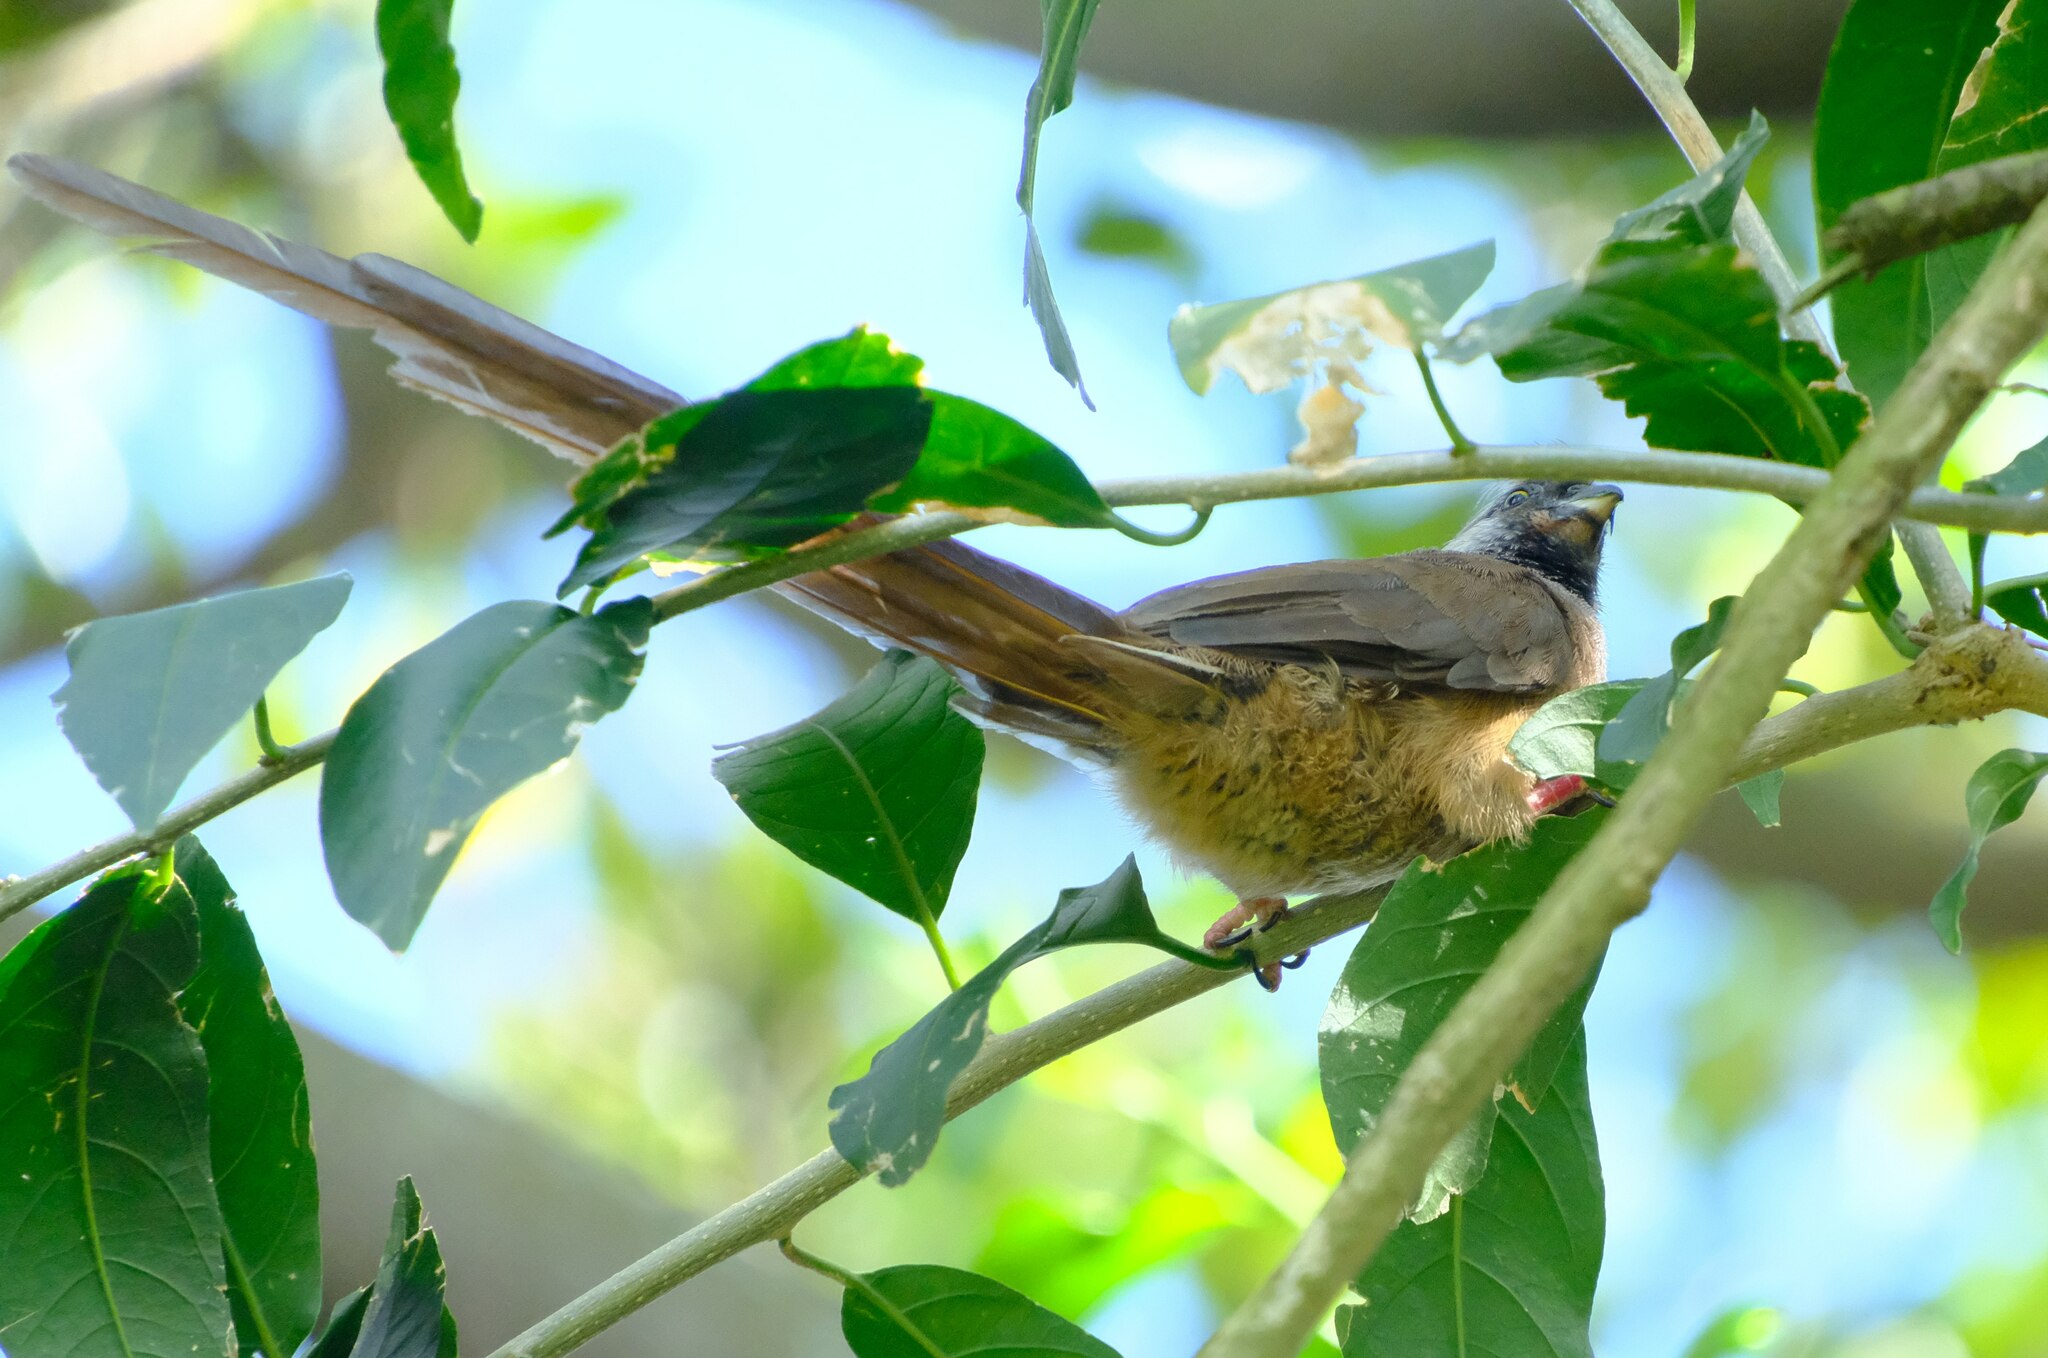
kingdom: Animalia
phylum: Chordata
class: Aves
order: Coliiformes
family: Coliidae
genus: Colius
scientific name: Colius striatus
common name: Speckled mousebird
